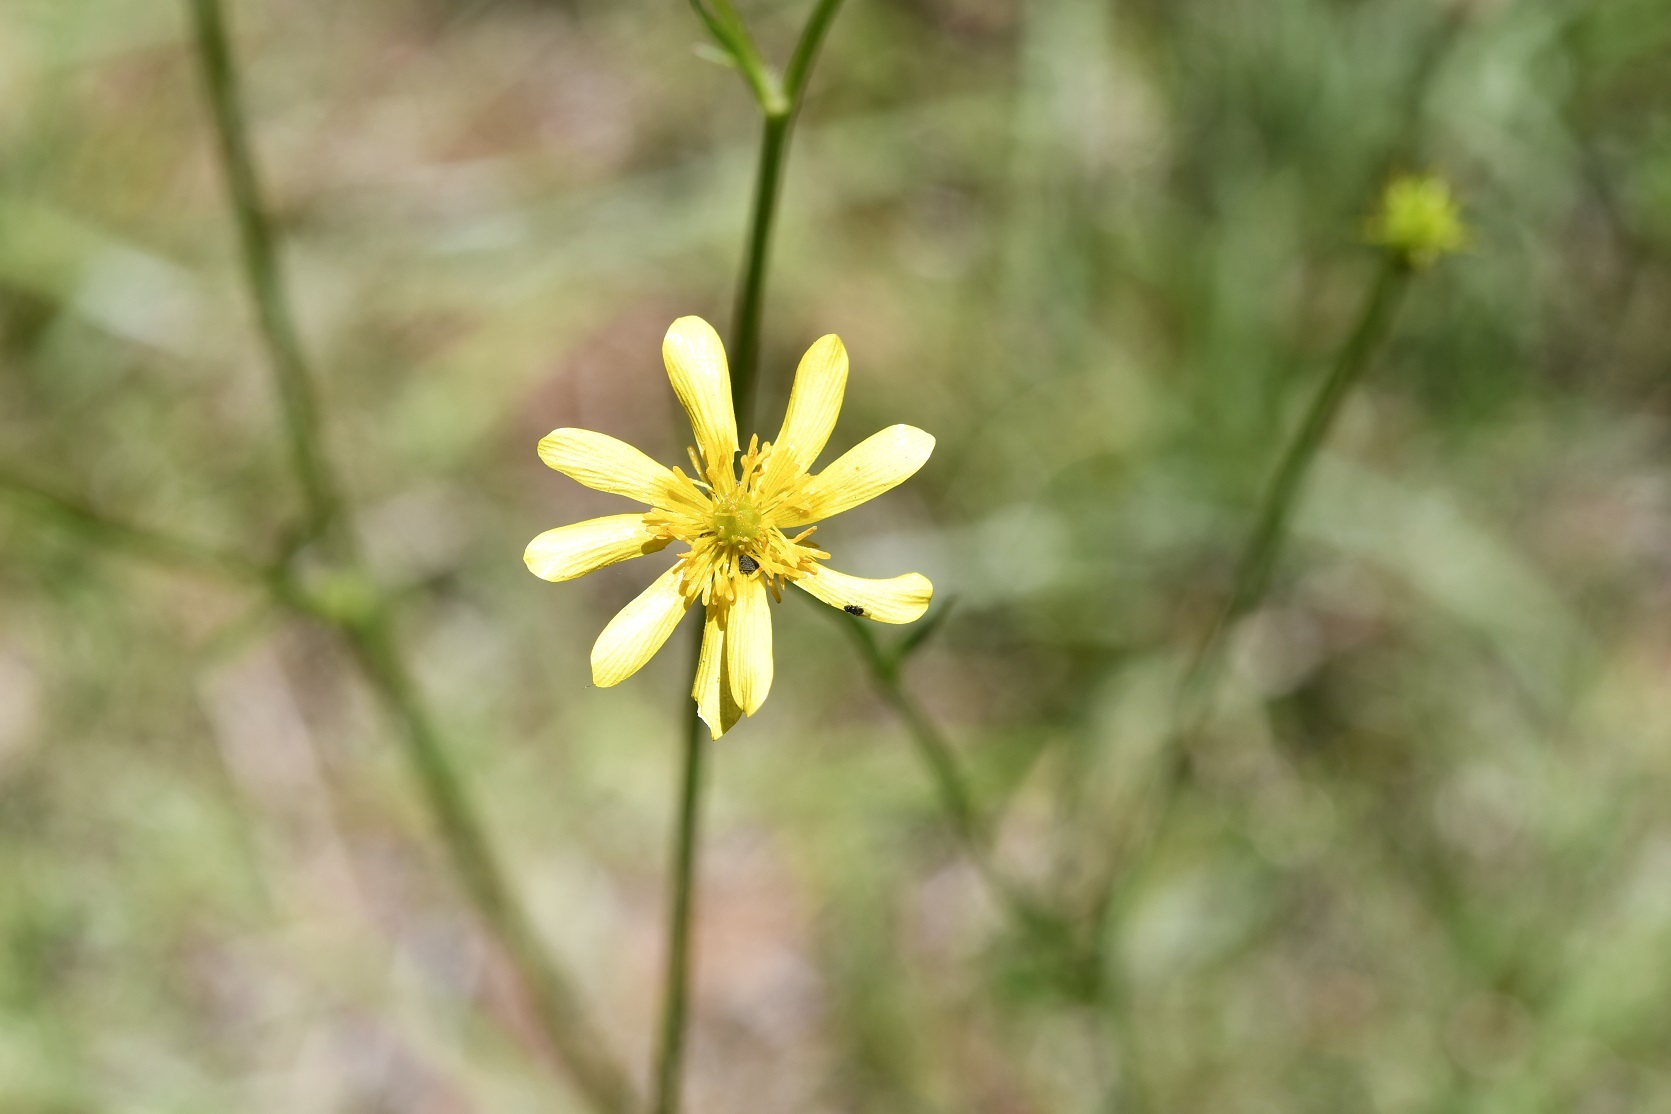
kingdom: Plantae
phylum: Tracheophyta
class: Magnoliopsida
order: Ranunculales
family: Ranunculaceae
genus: Ranunculus
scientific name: Ranunculus petiolaris
